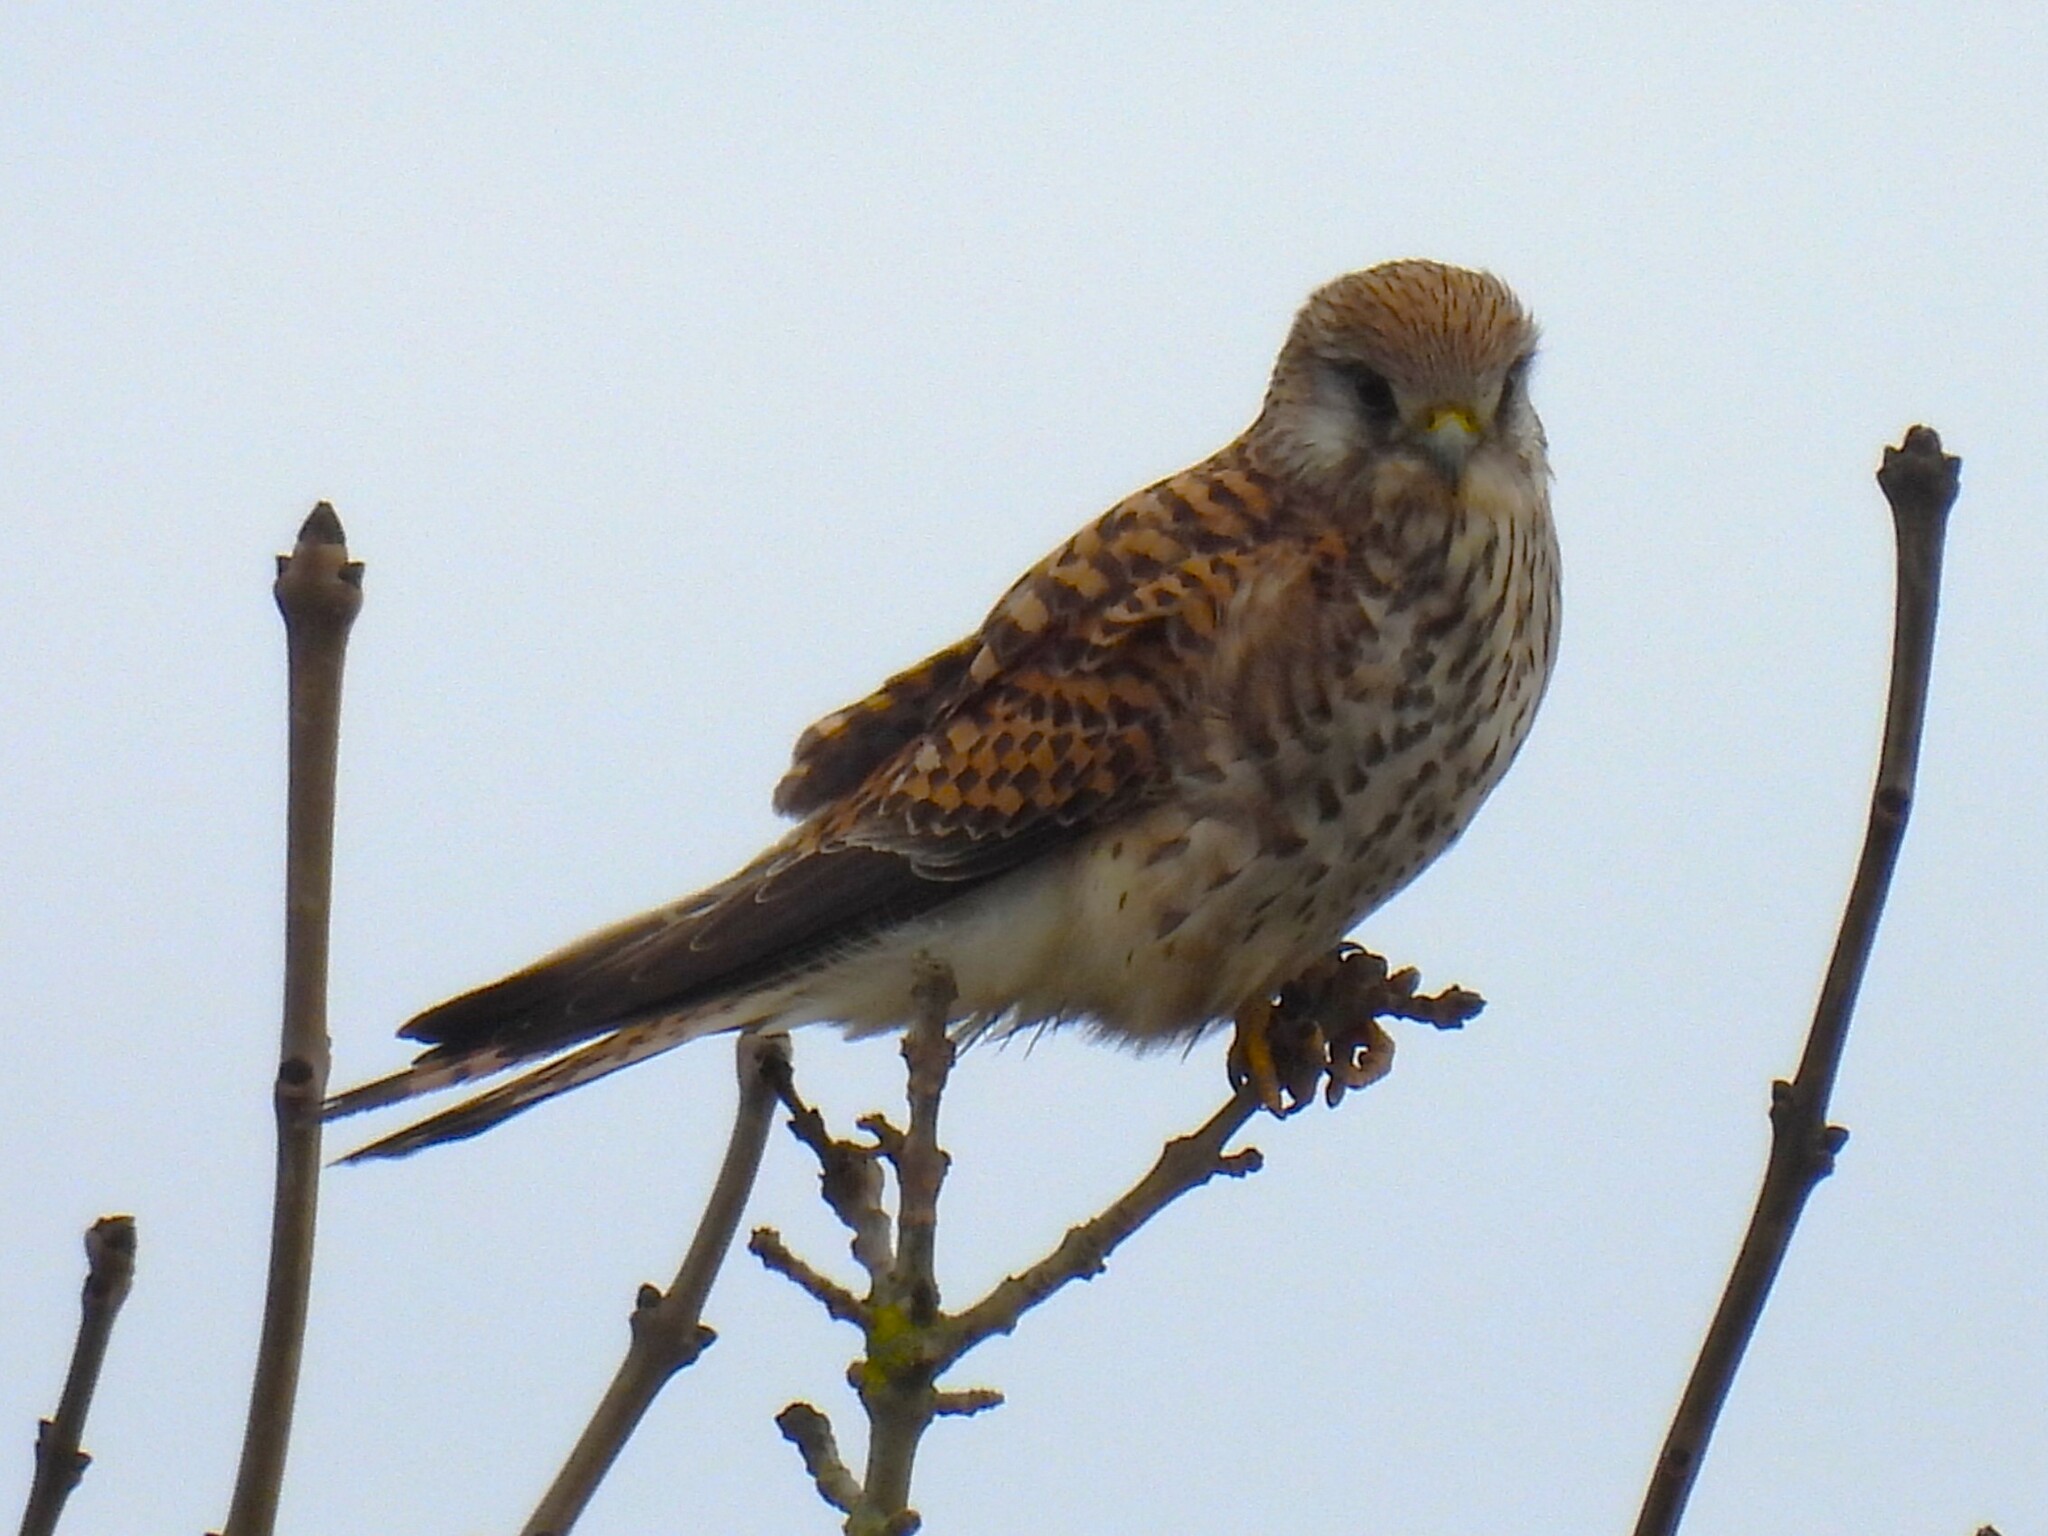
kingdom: Animalia
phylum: Chordata
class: Aves
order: Falconiformes
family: Falconidae
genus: Falco
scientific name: Falco tinnunculus
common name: Common kestrel
